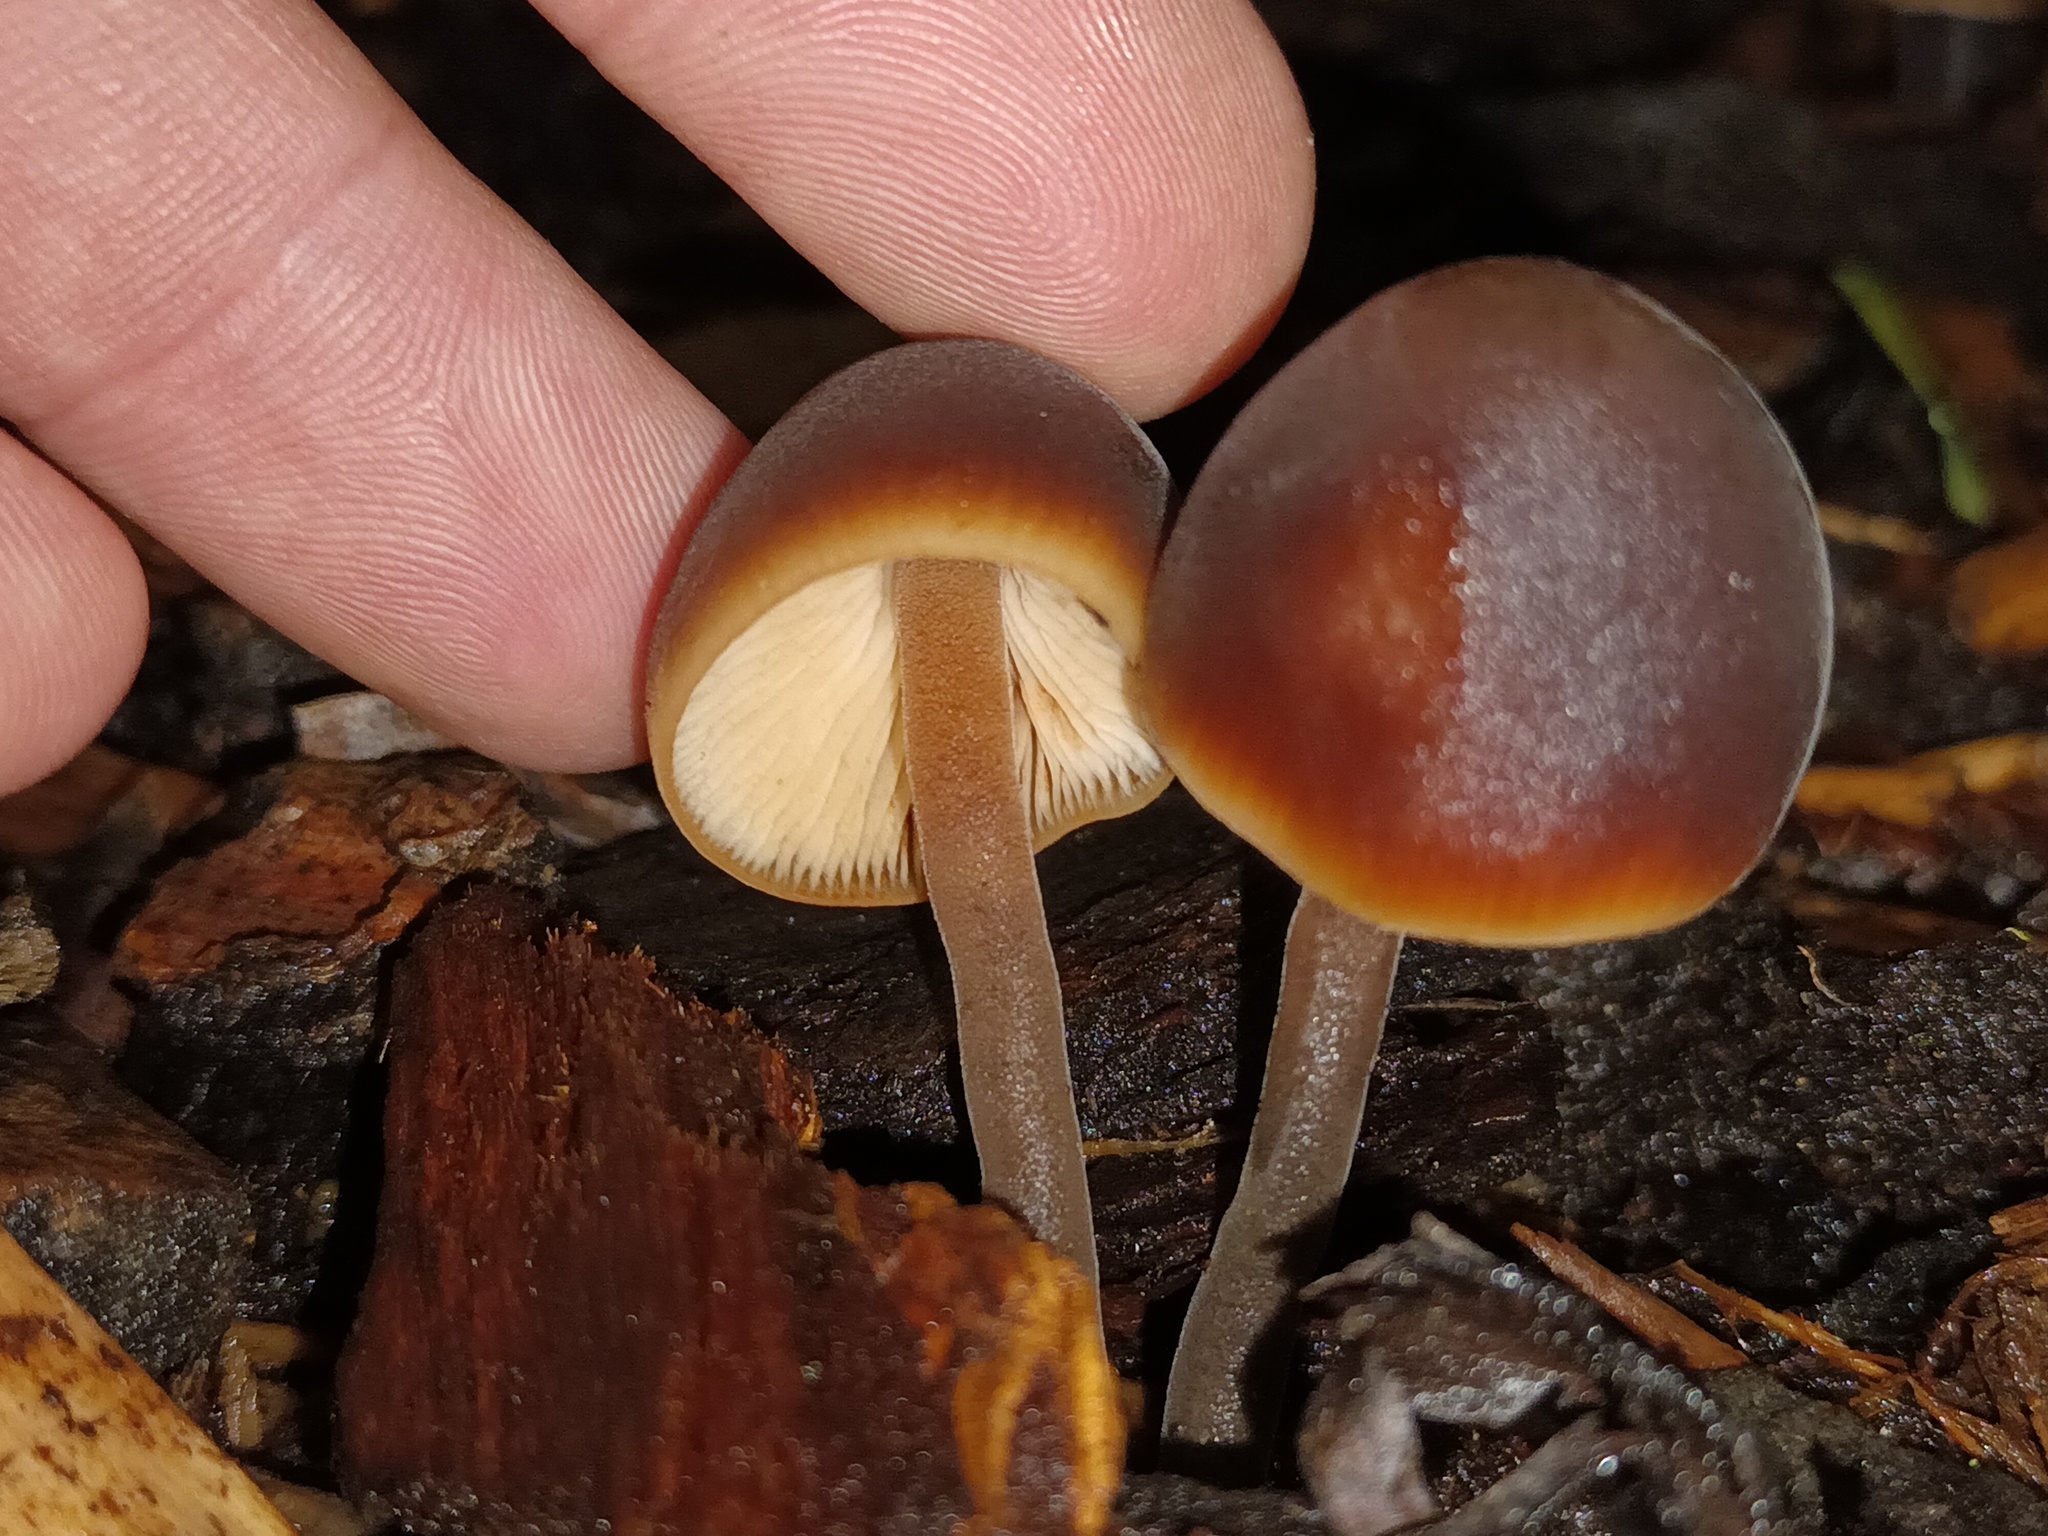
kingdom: Fungi
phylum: Basidiomycota
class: Agaricomycetes
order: Agaricales
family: Macrocystidiaceae
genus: Macrocystidia
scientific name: Macrocystidia cucumis
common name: Cucumber cap
